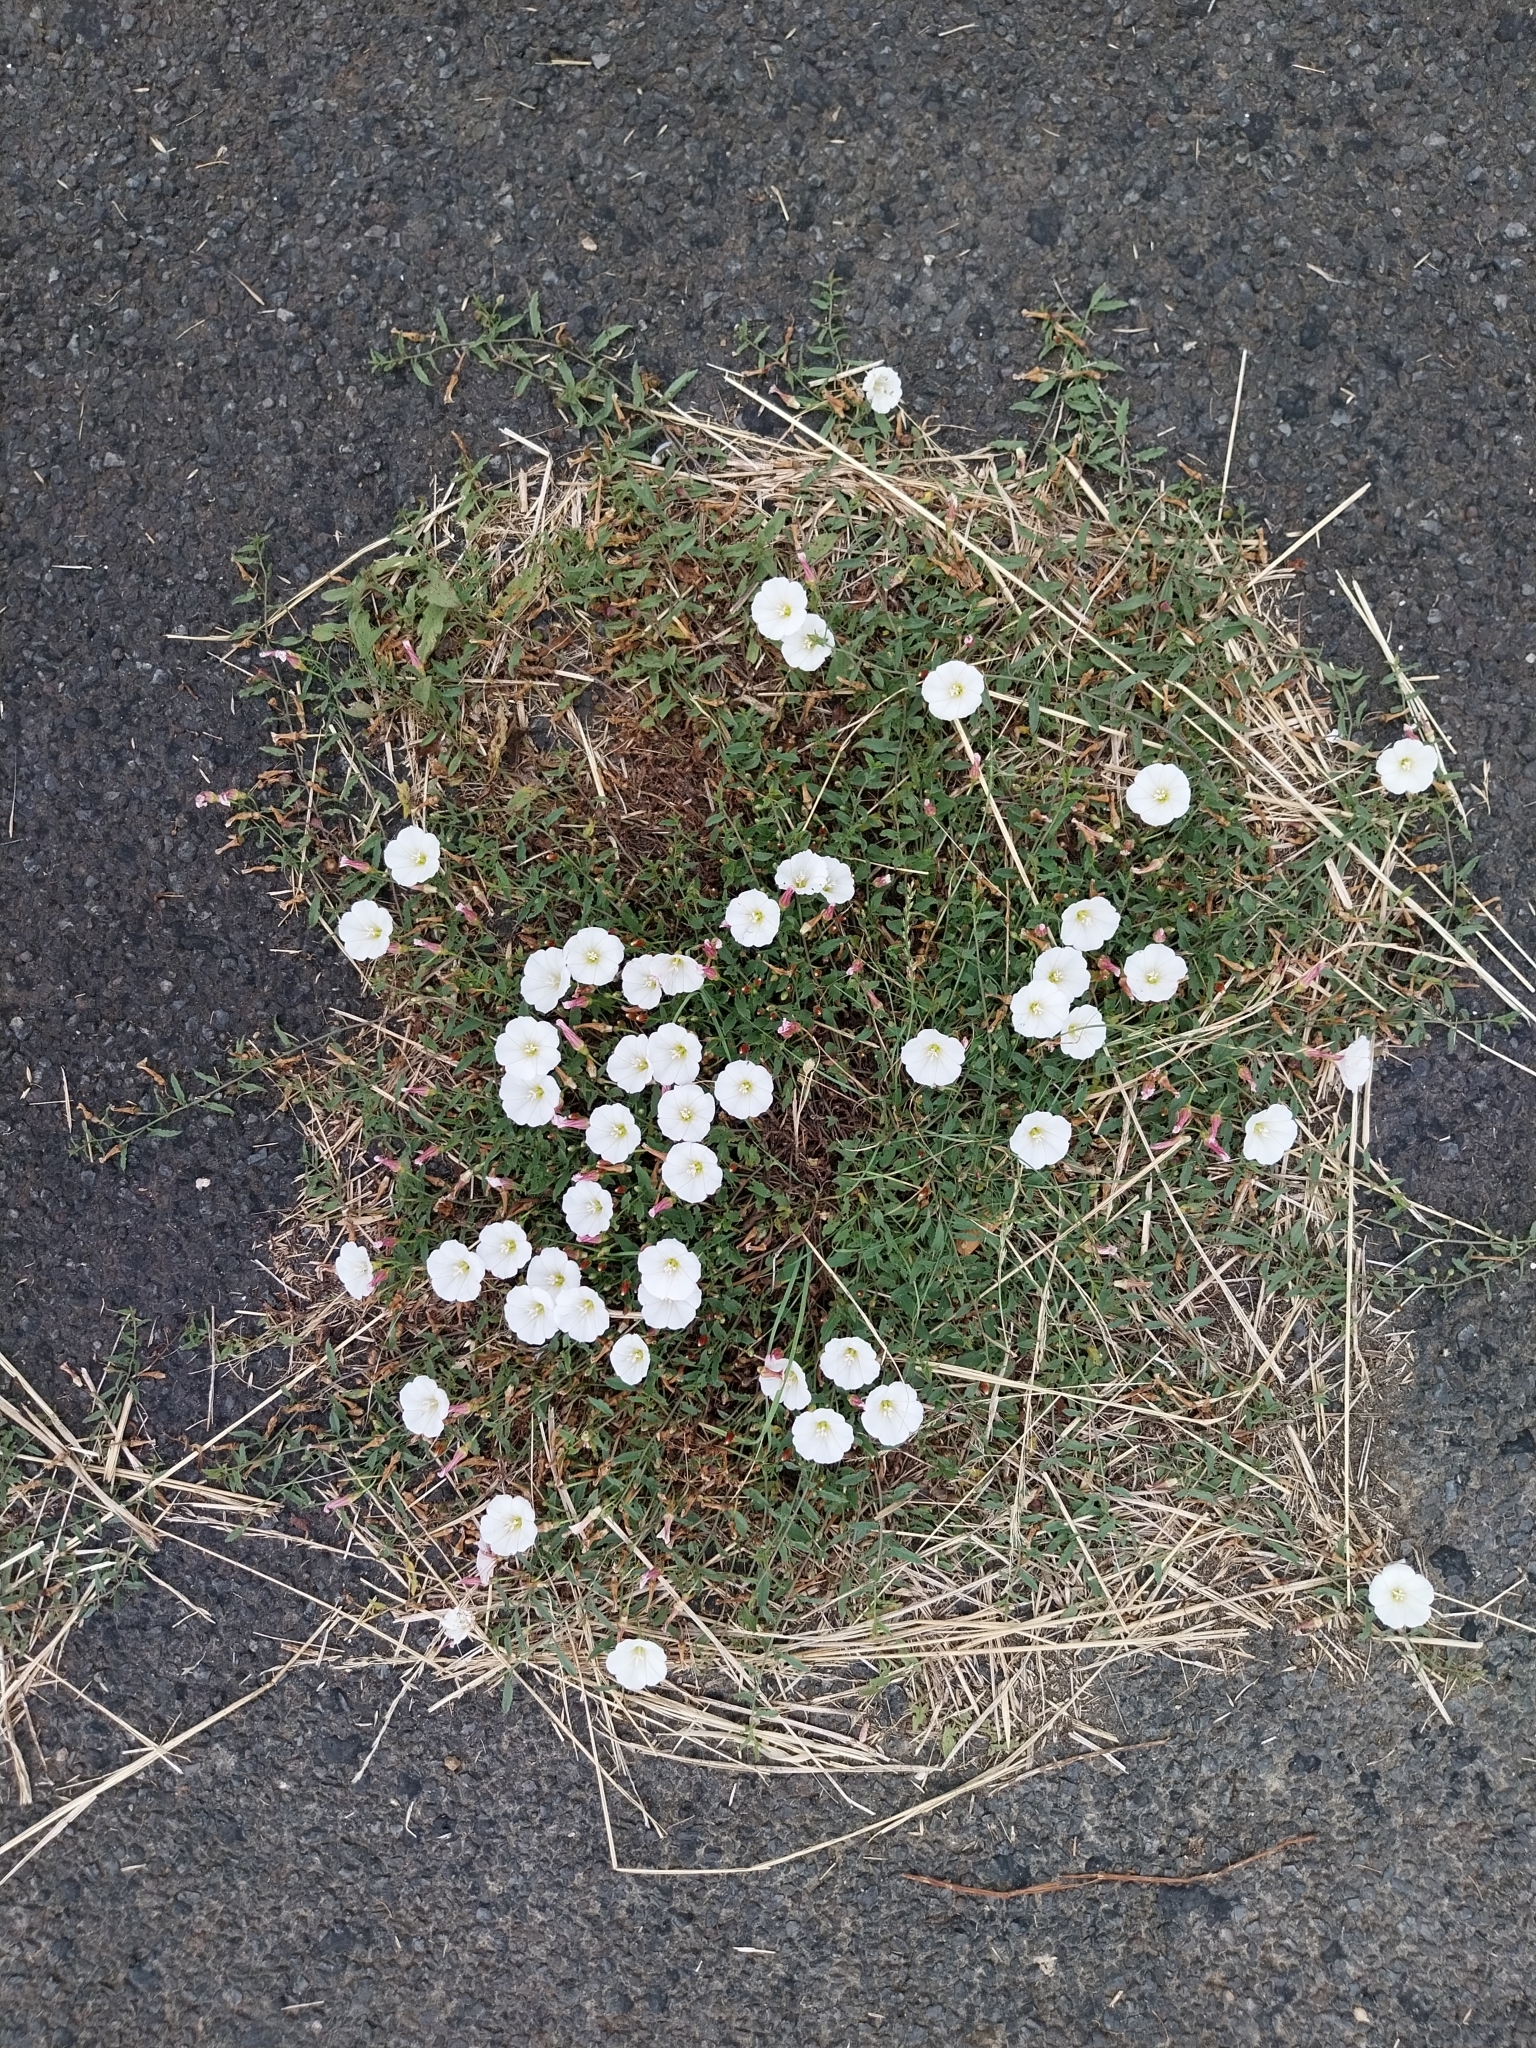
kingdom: Plantae
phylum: Tracheophyta
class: Magnoliopsida
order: Solanales
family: Convolvulaceae
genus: Convolvulus
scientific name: Convolvulus arvensis
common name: Field bindweed
